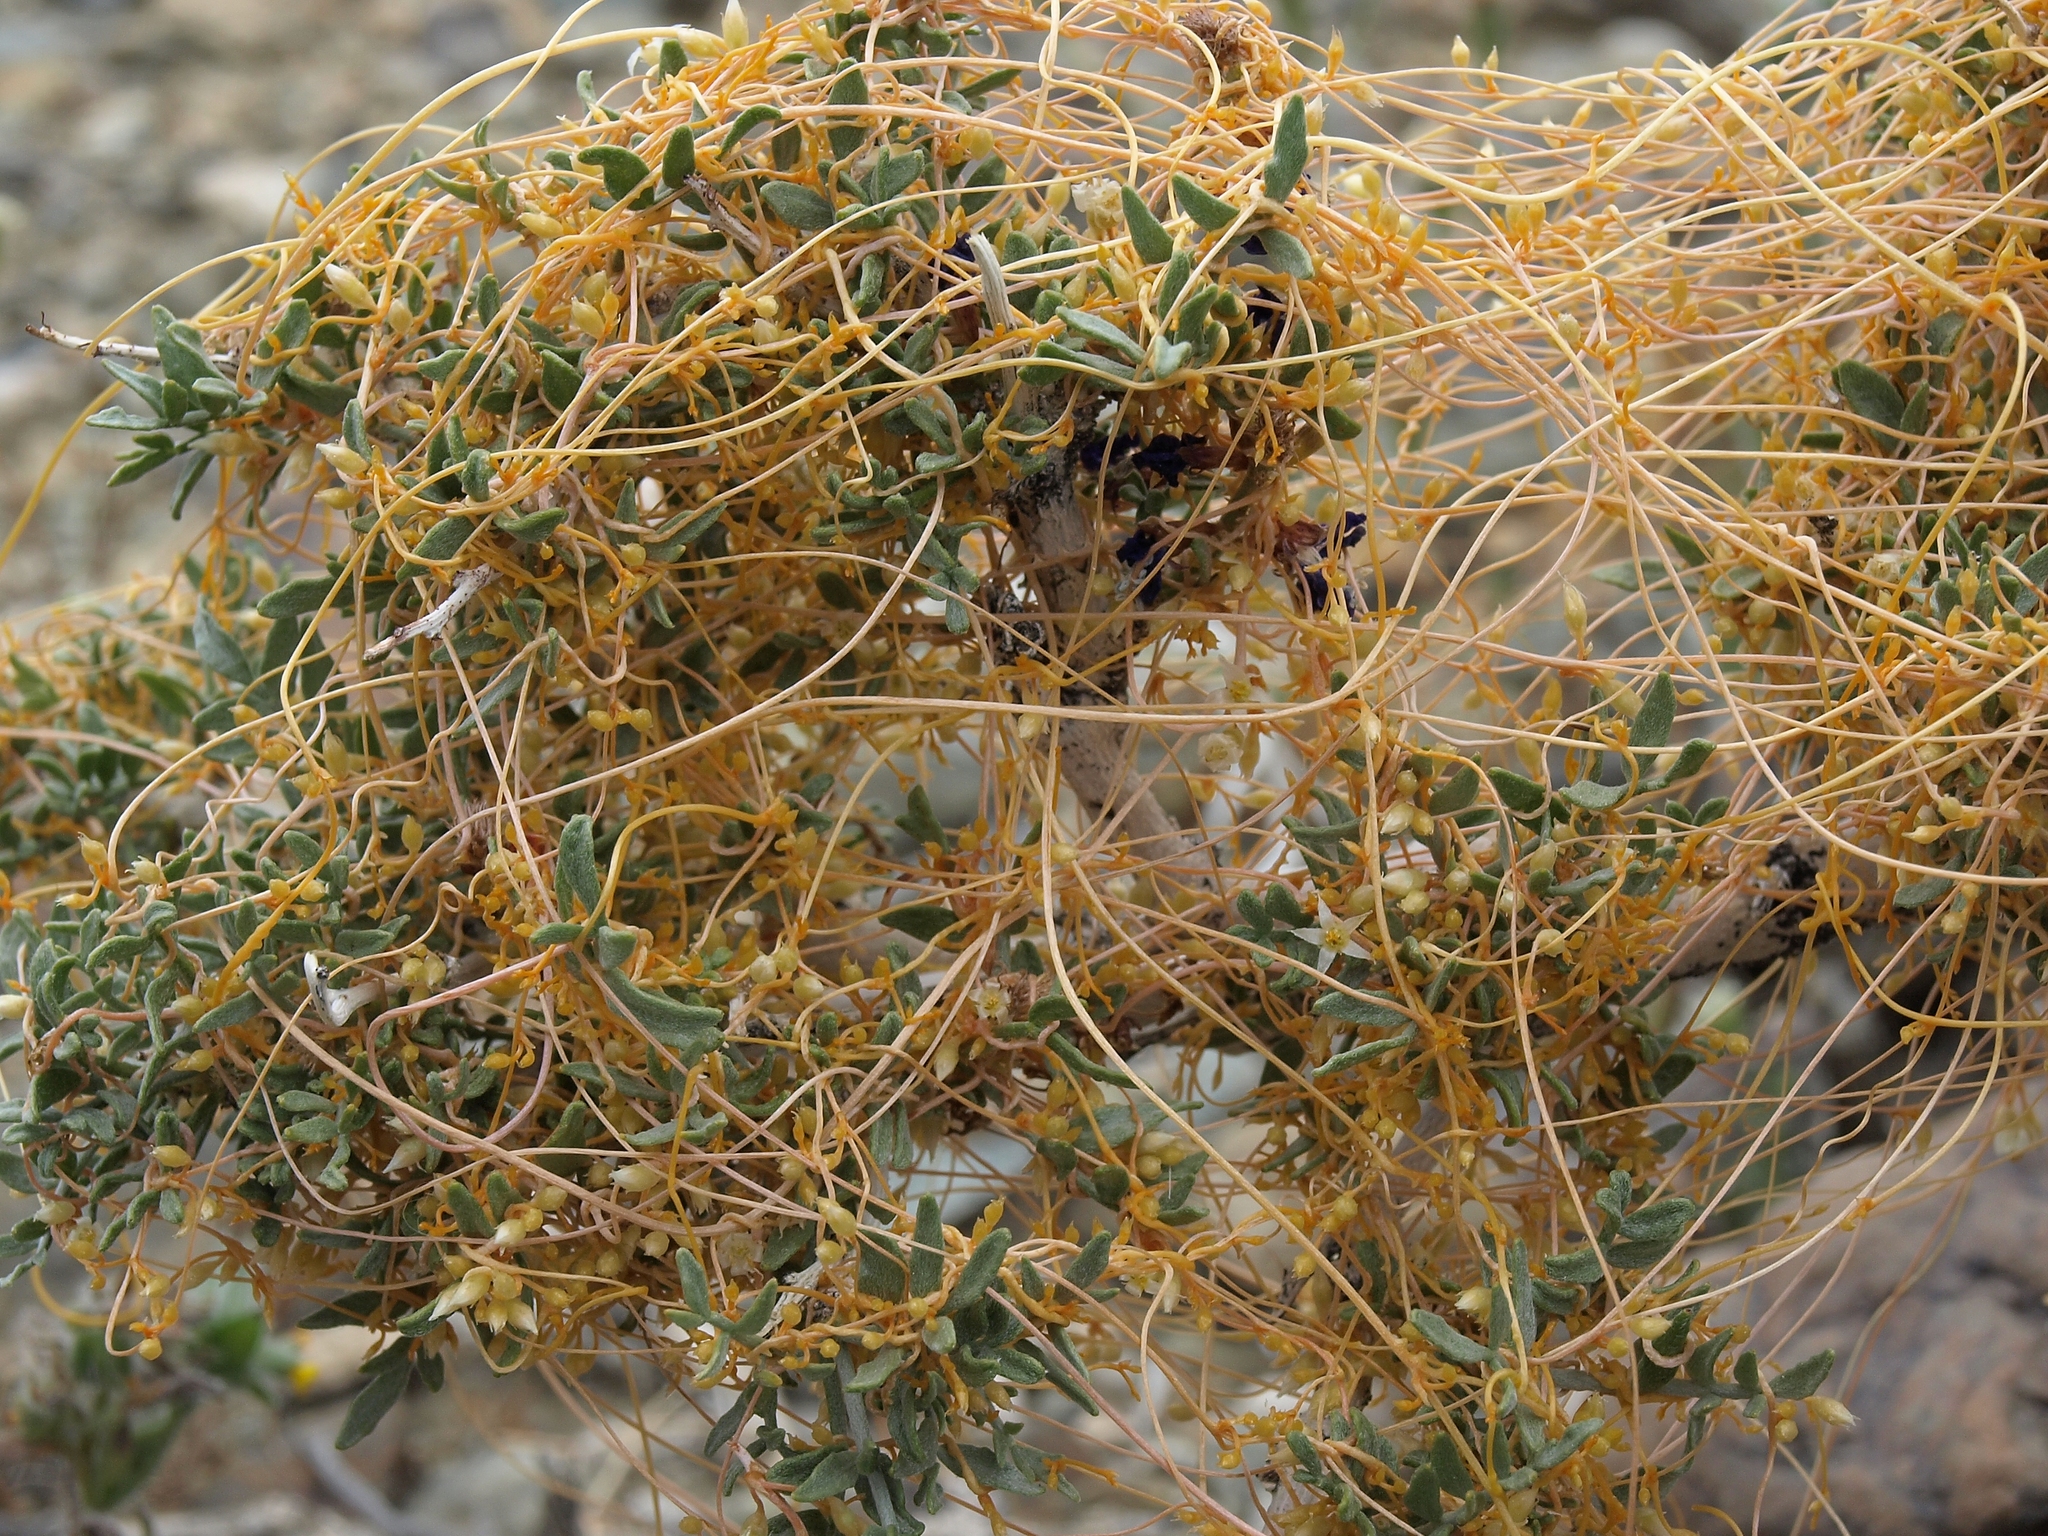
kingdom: Plantae
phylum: Tracheophyta
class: Magnoliopsida
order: Fabales
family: Fabaceae
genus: Psorothamnus
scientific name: Psorothamnus arborescens
